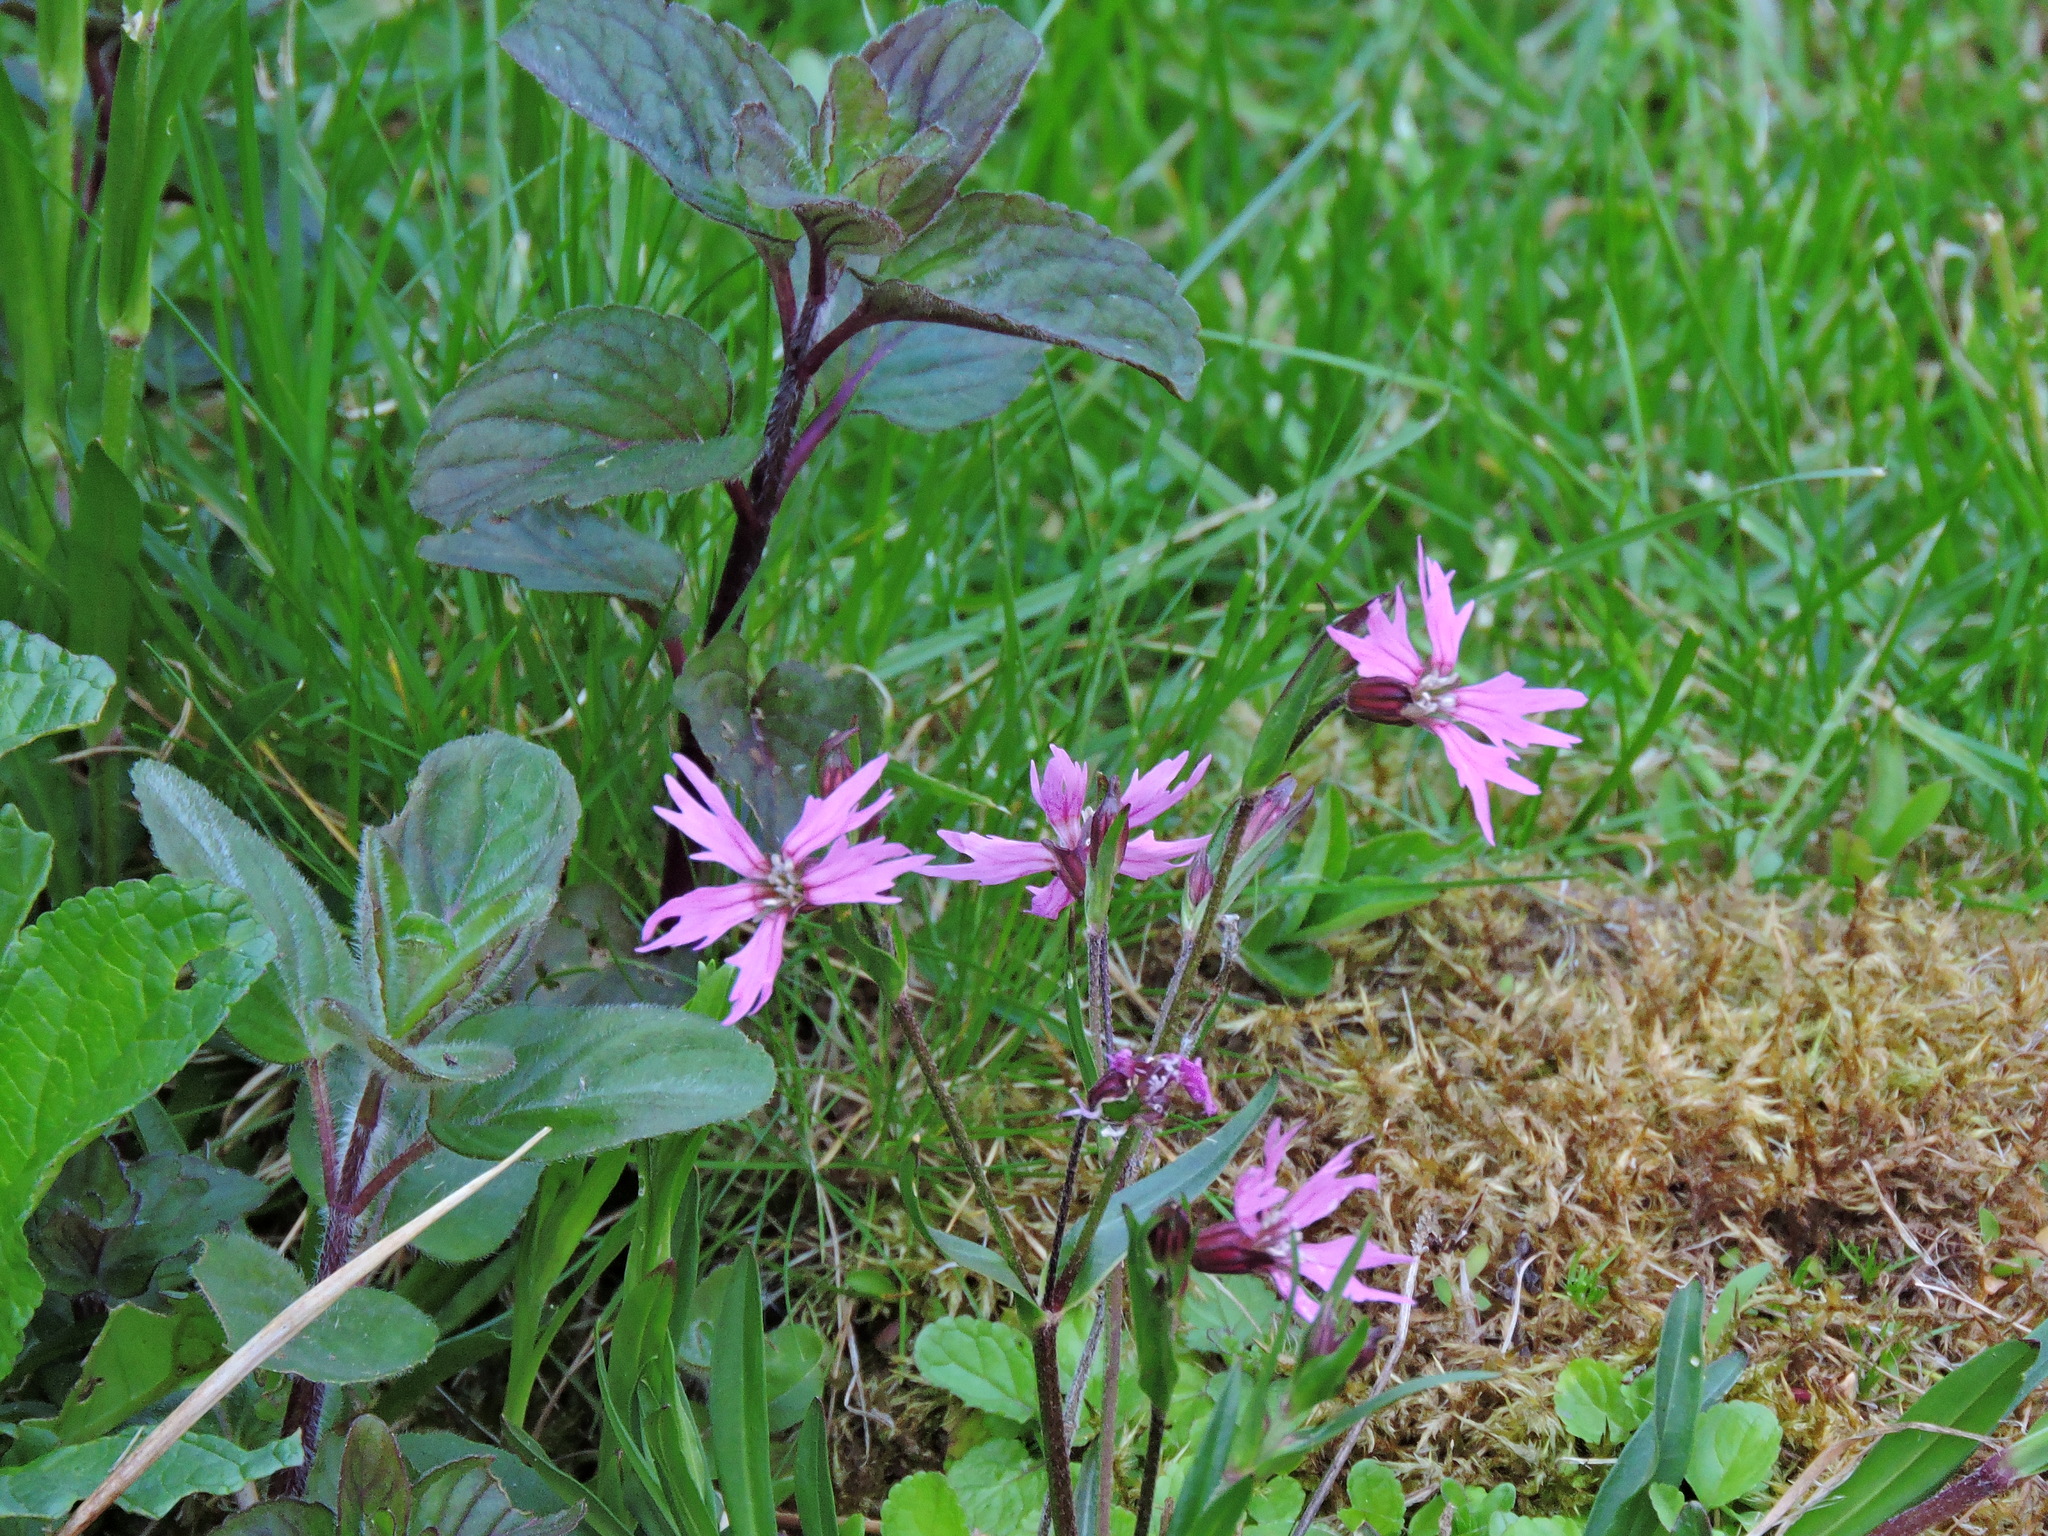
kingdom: Plantae
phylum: Tracheophyta
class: Magnoliopsida
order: Caryophyllales
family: Caryophyllaceae
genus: Silene
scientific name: Silene flos-cuculi
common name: Ragged-robin
